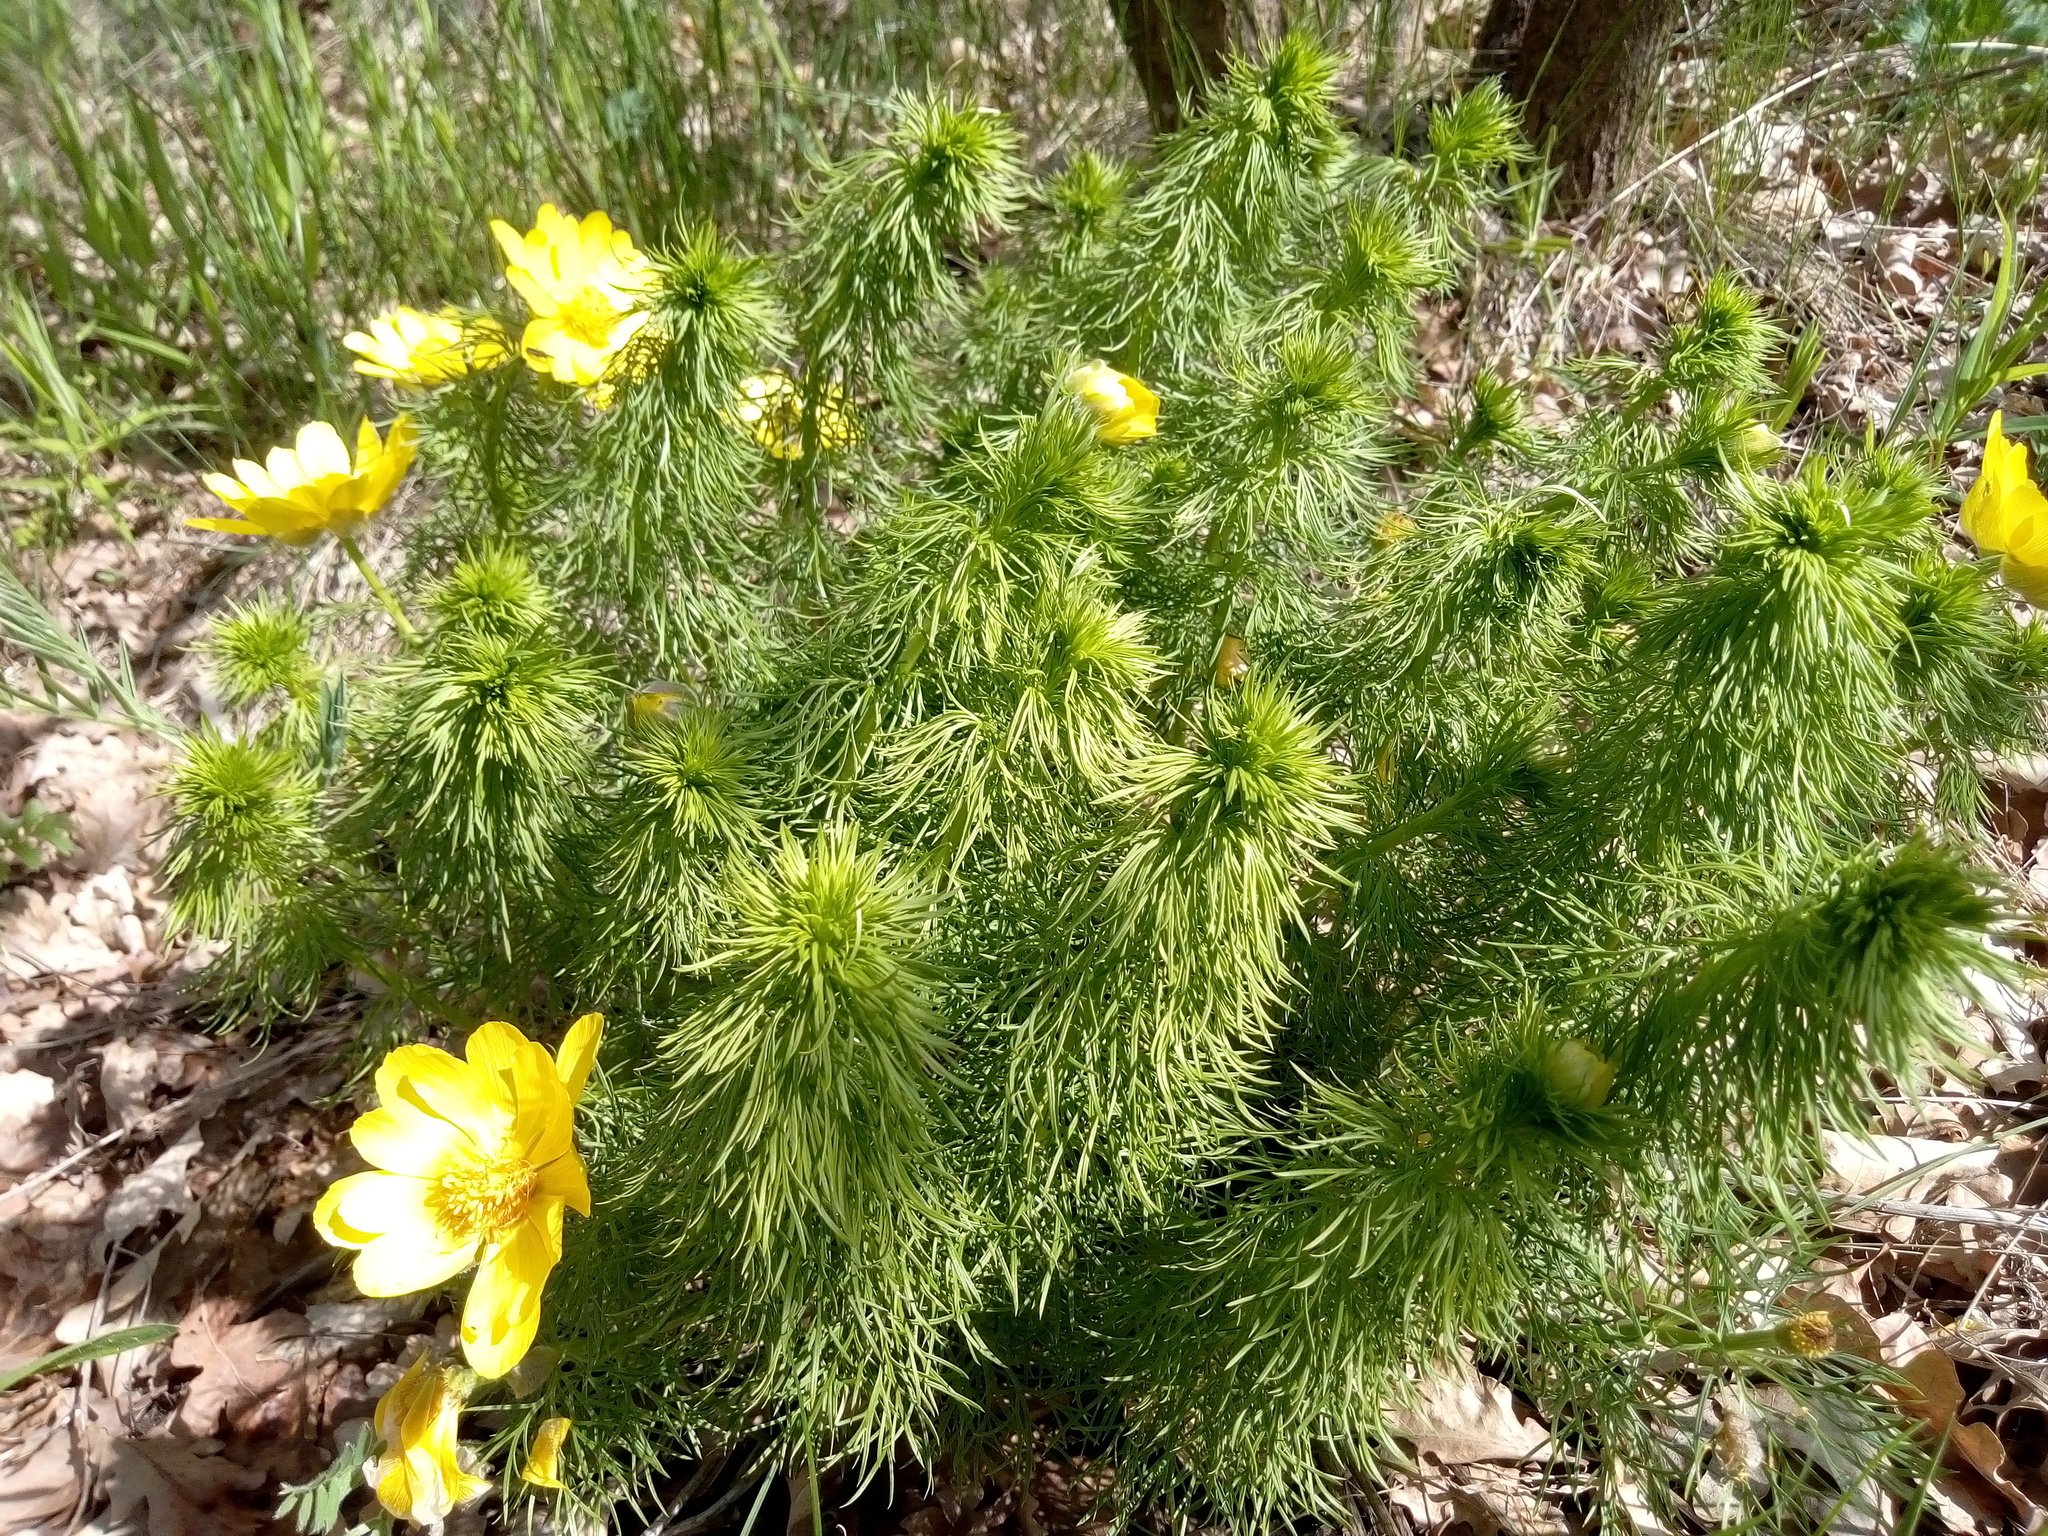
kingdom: Plantae
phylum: Tracheophyta
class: Magnoliopsida
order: Ranunculales
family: Ranunculaceae
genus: Adonis
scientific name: Adonis vernalis
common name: Yellow pheasants-eye
